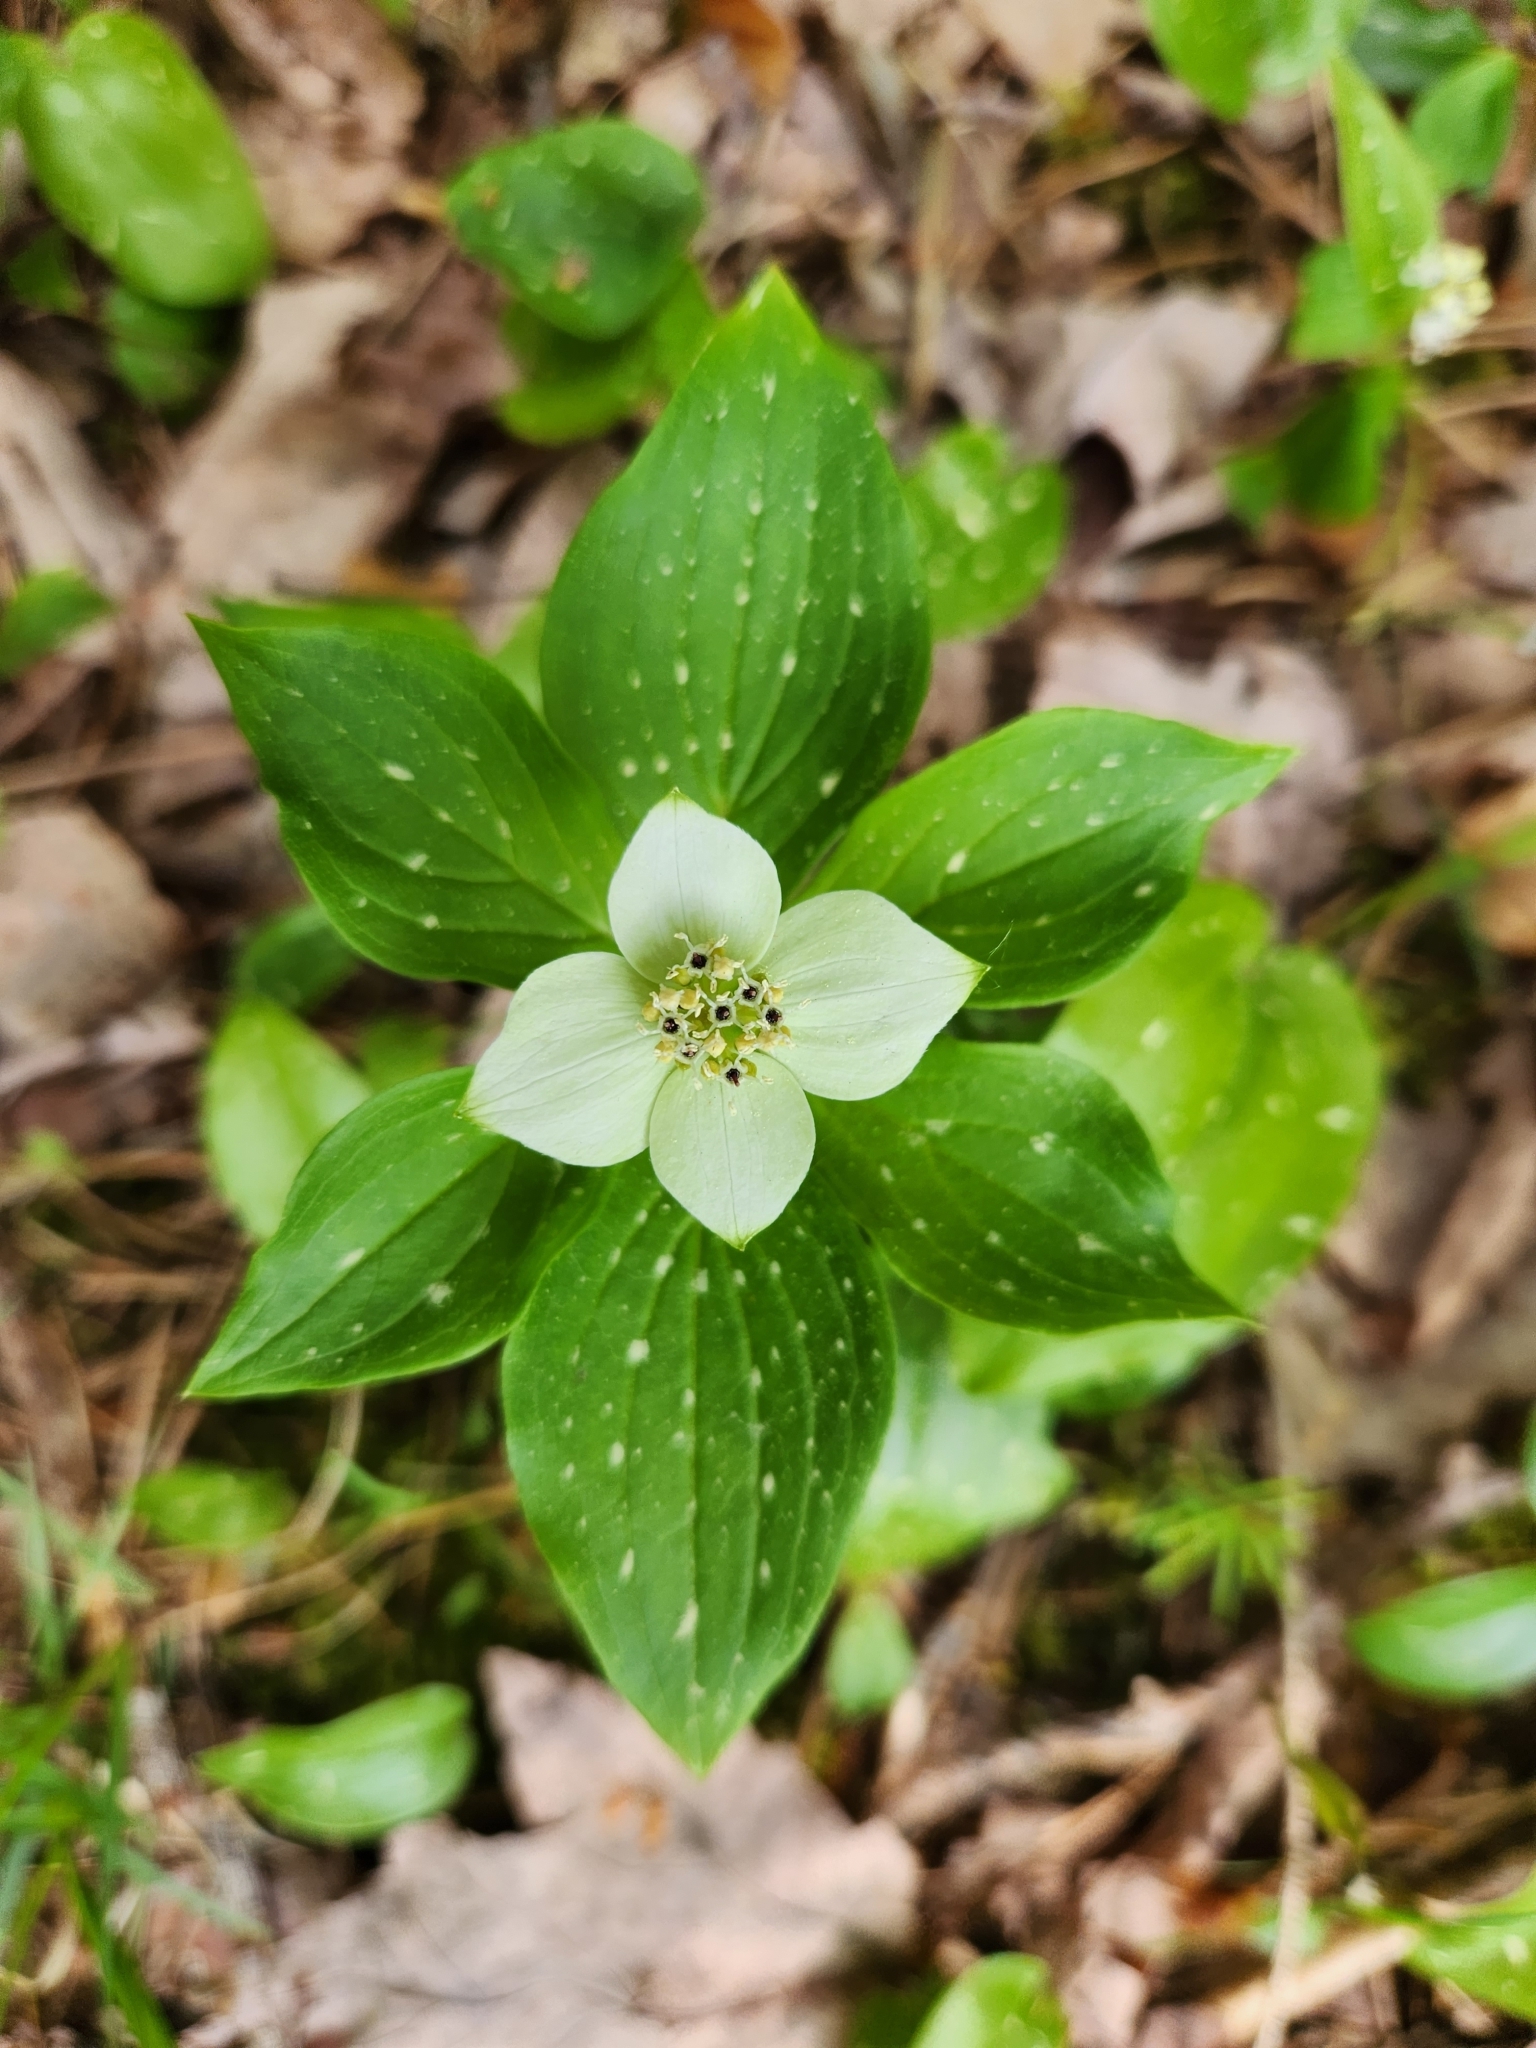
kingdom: Plantae
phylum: Tracheophyta
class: Magnoliopsida
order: Cornales
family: Cornaceae
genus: Cornus
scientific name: Cornus canadensis
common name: Creeping dogwood
